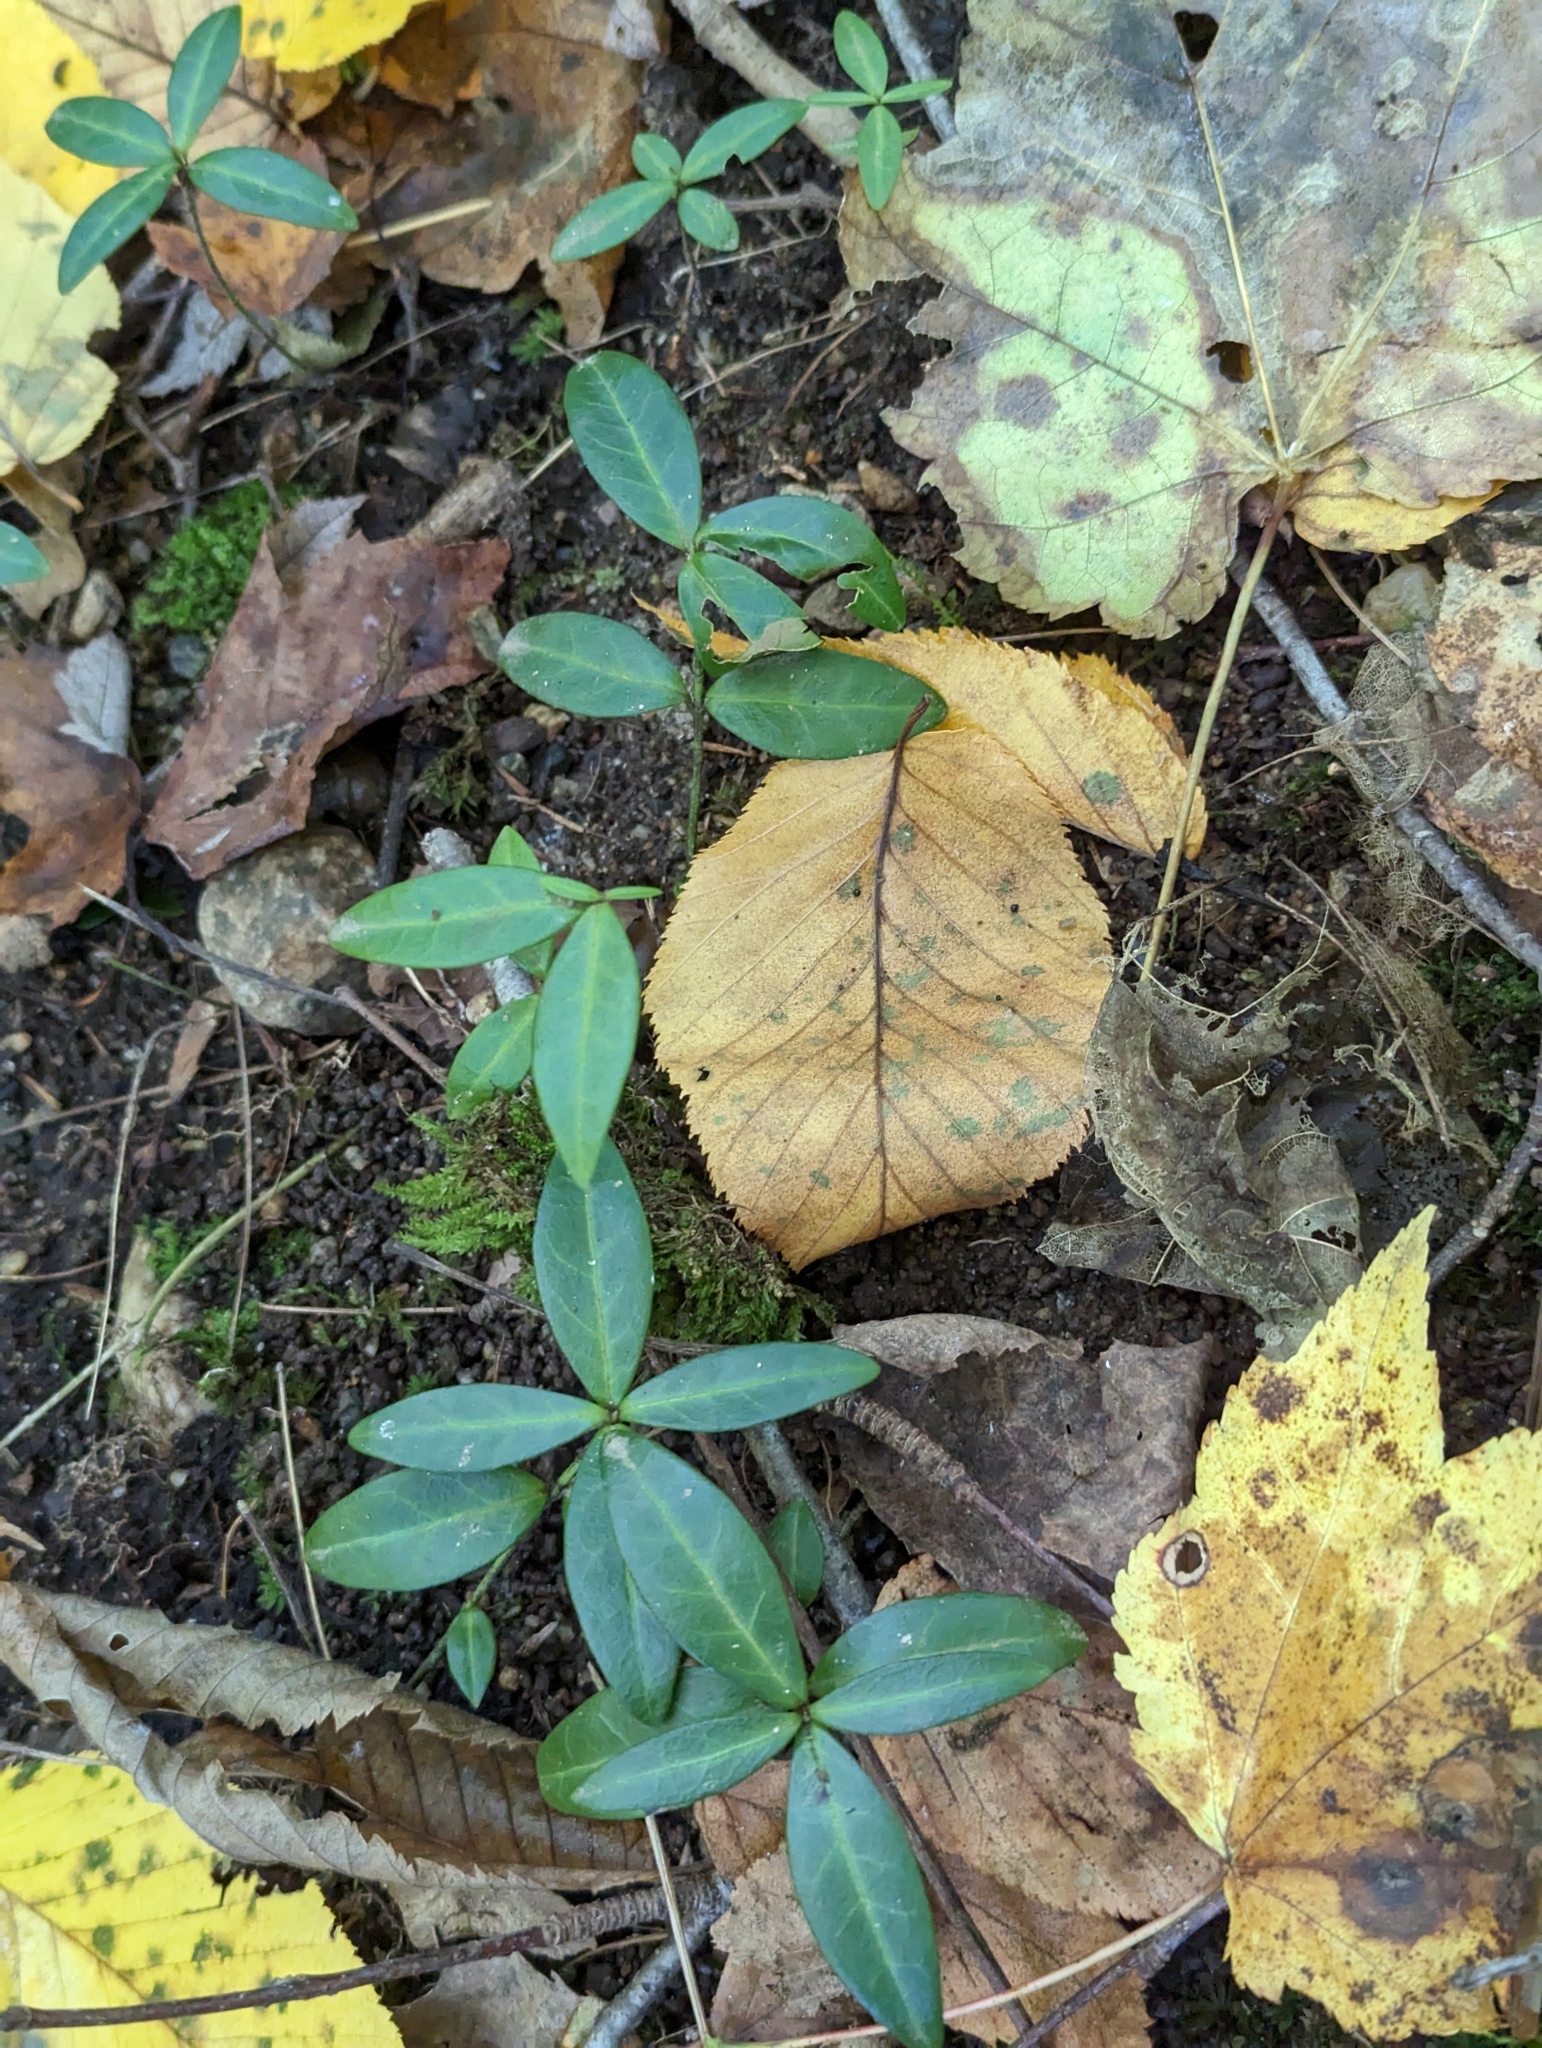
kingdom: Plantae
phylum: Tracheophyta
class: Magnoliopsida
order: Gentianales
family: Apocynaceae
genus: Vinca
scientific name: Vinca minor
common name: Lesser periwinkle
